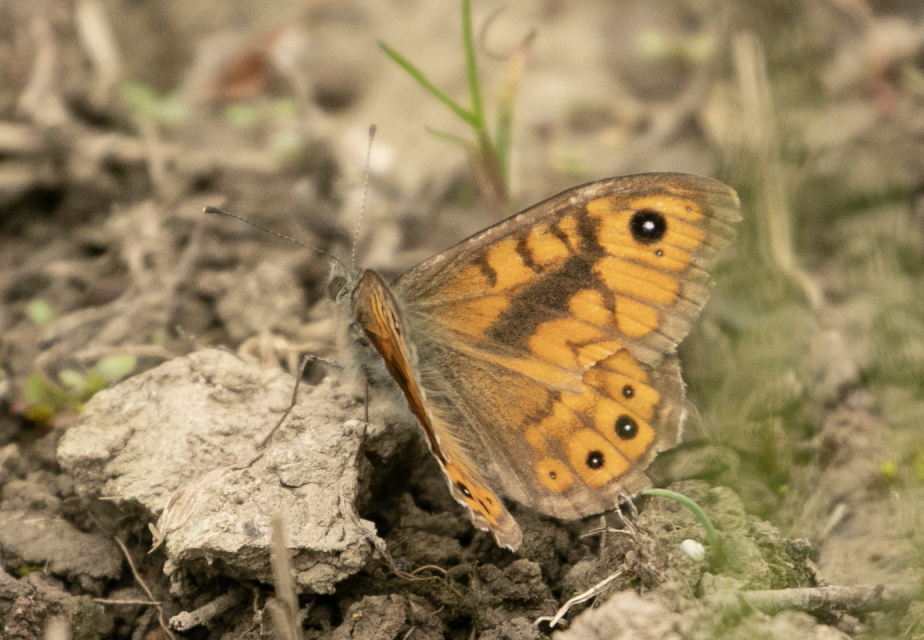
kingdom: Animalia
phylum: Arthropoda
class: Insecta
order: Lepidoptera
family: Nymphalidae
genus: Pararge
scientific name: Pararge Lasiommata megera
